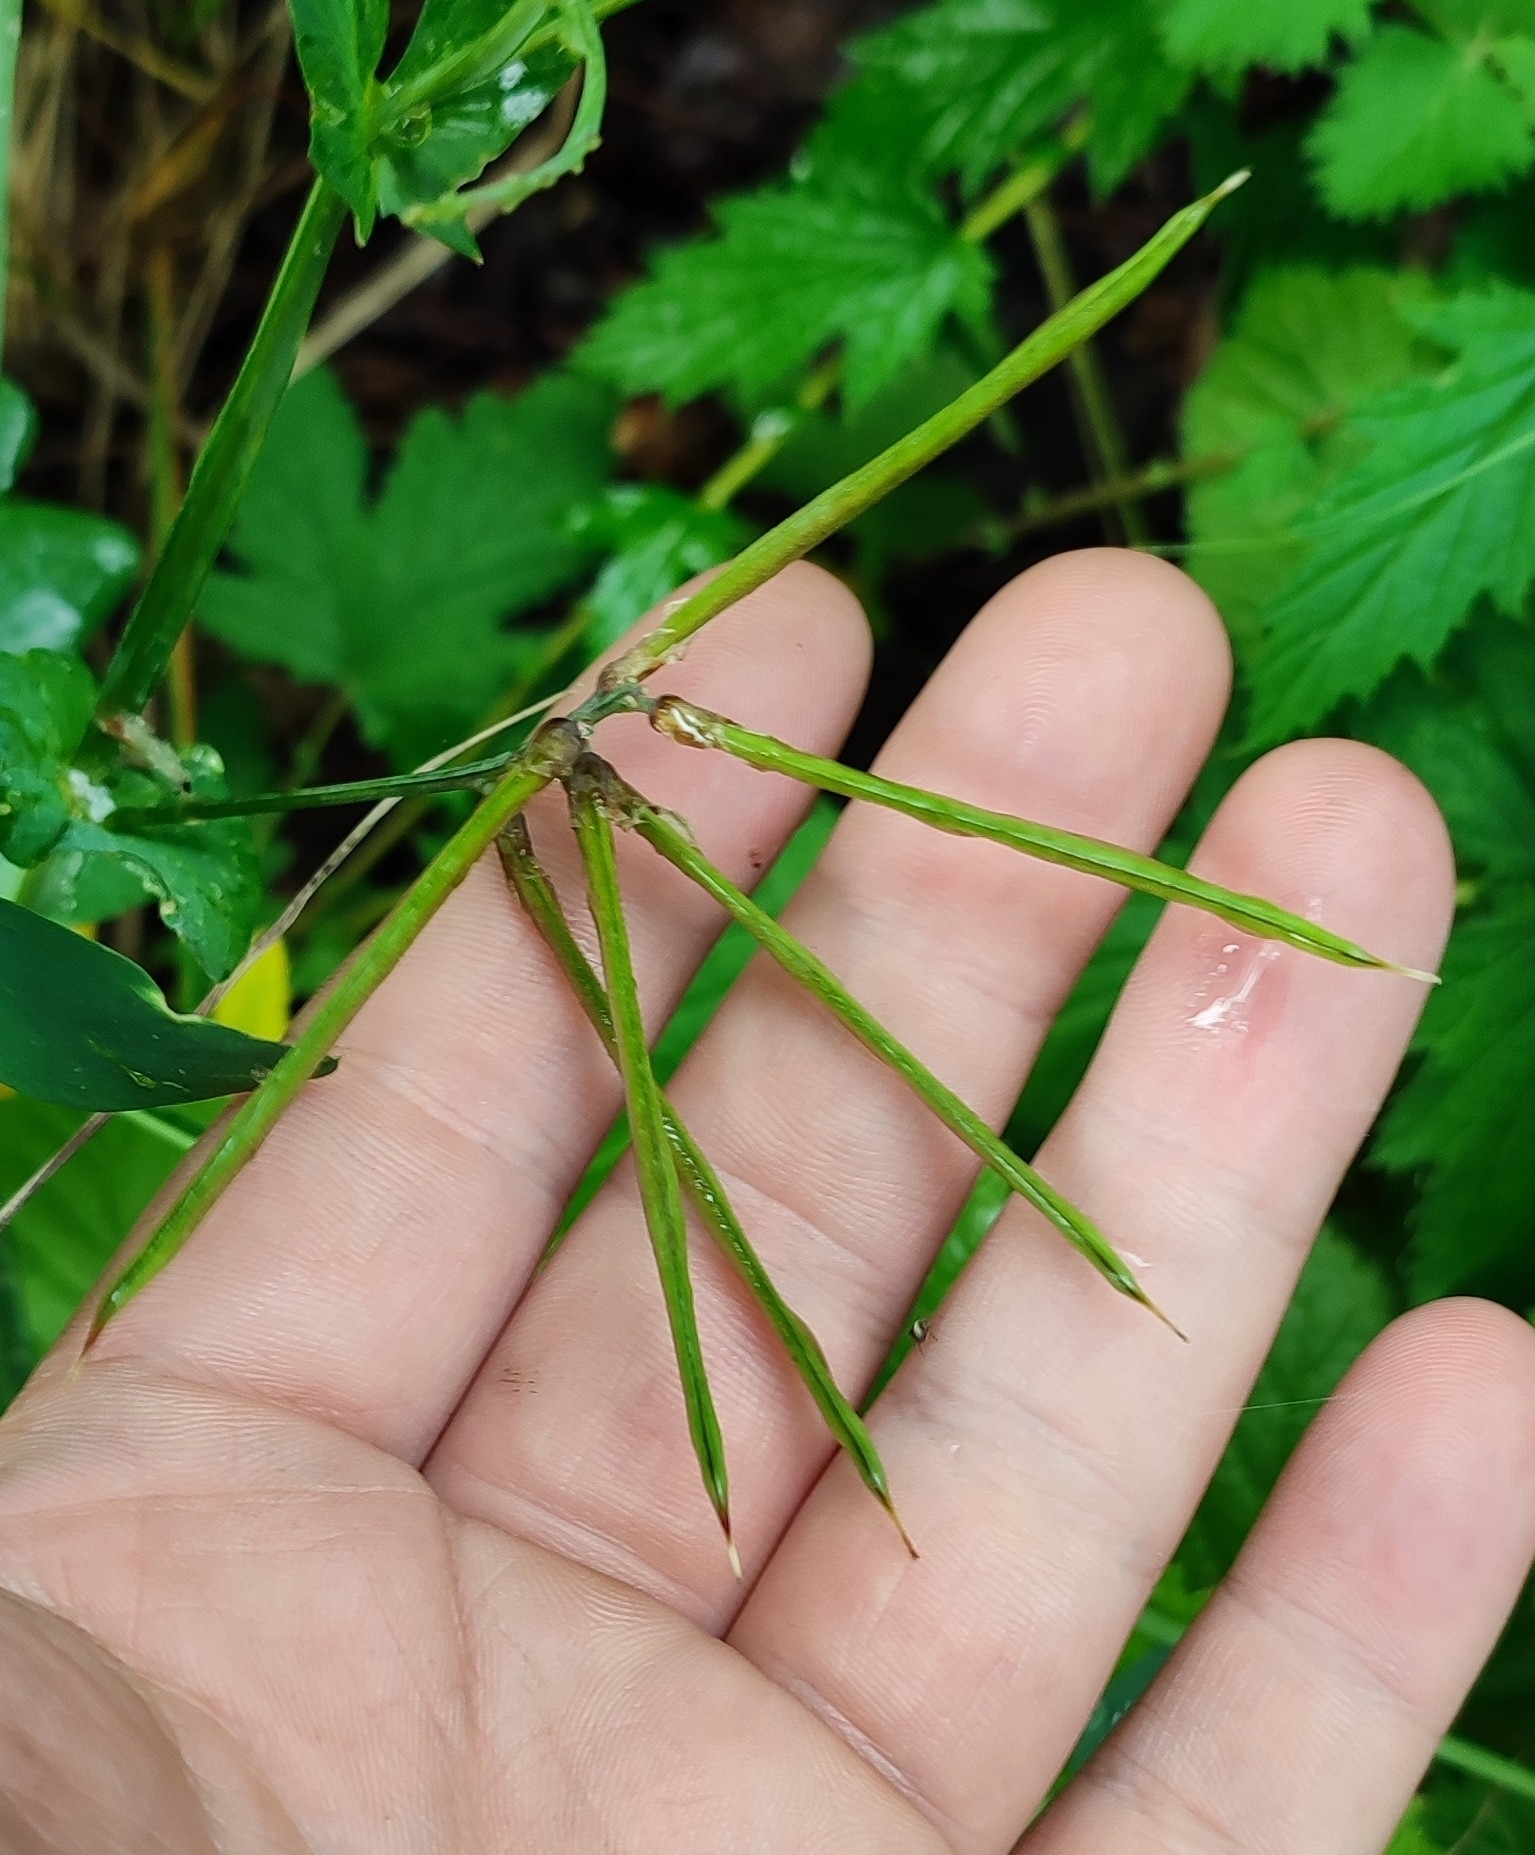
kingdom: Plantae
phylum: Tracheophyta
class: Magnoliopsida
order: Fabales
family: Fabaceae
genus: Vicia
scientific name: Vicia sepium
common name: Bush vetch
